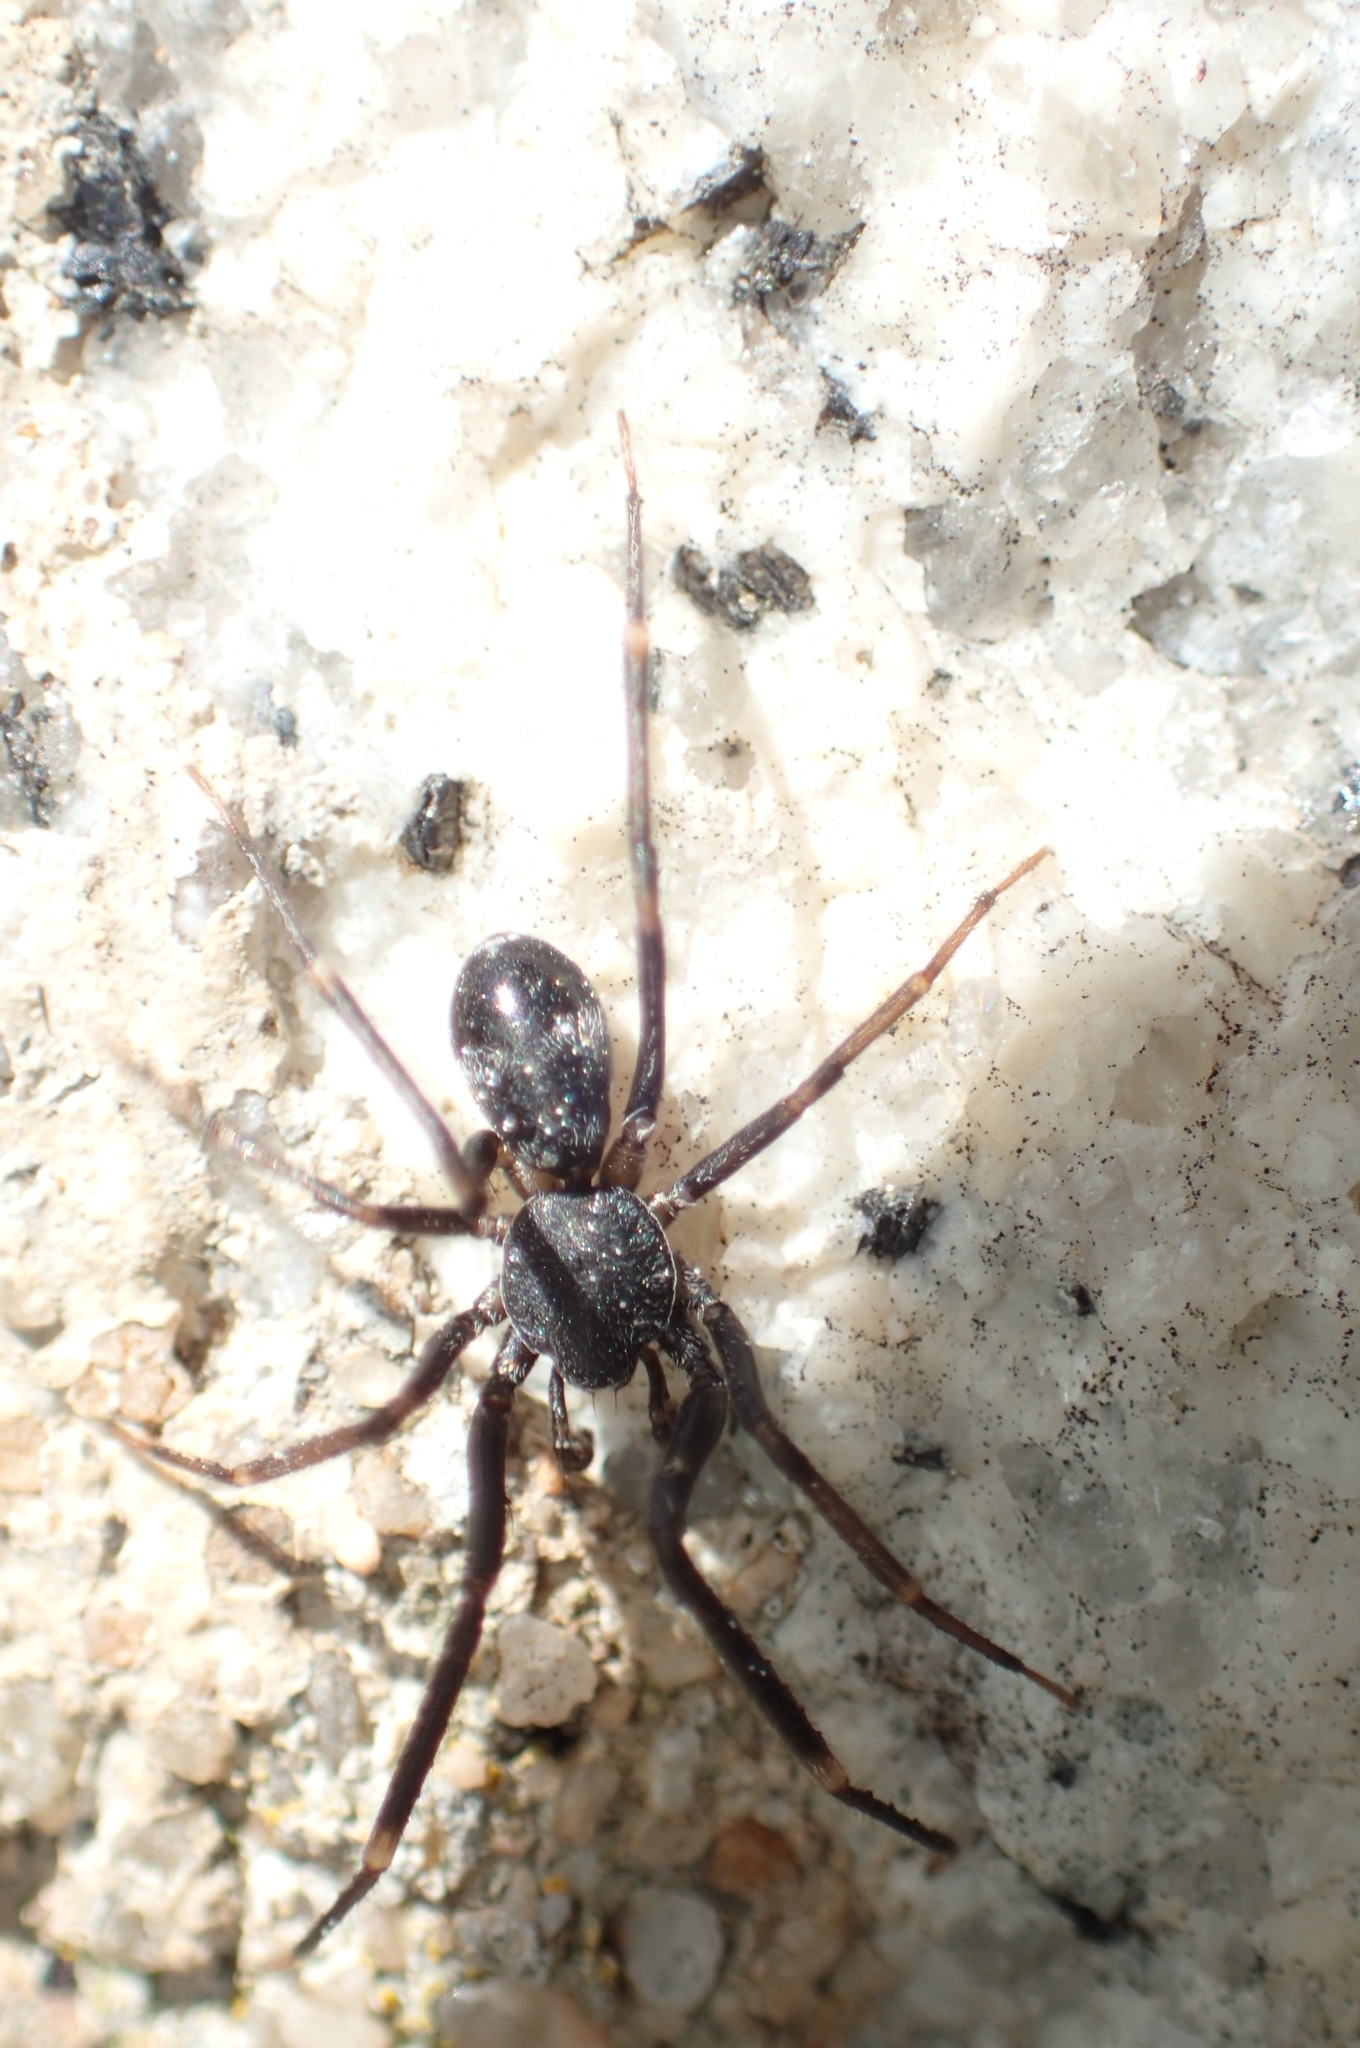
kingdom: Animalia
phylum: Arthropoda
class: Arachnida
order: Araneae
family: Phrurolithidae
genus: Liophrurillus
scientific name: Liophrurillus flavitarsis
